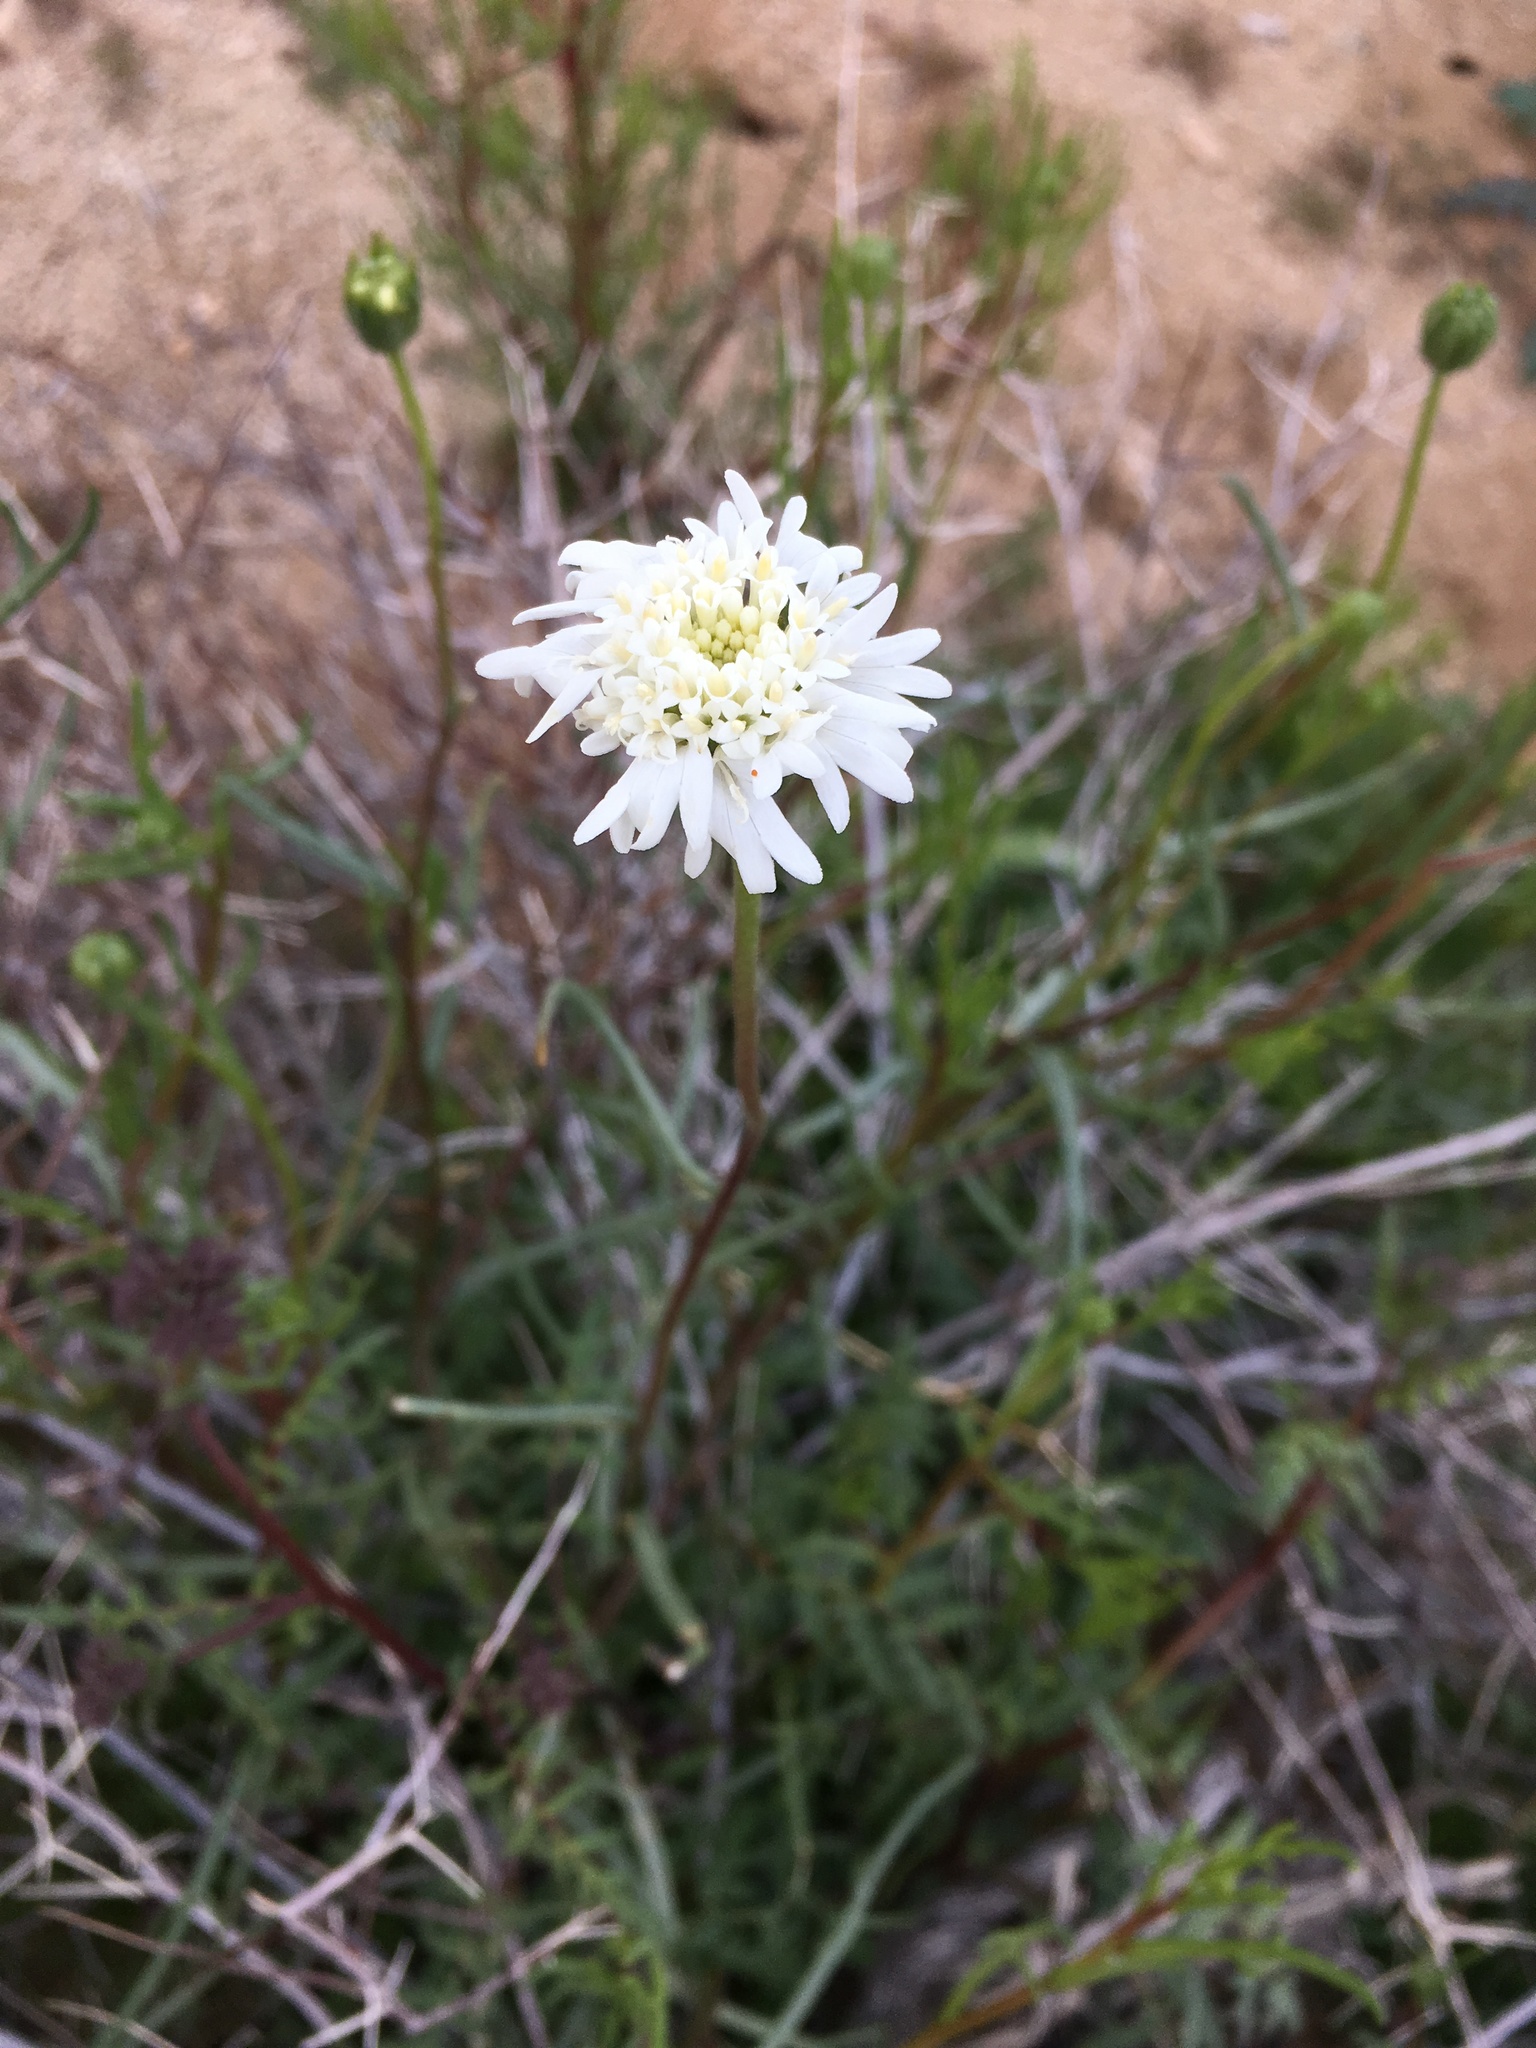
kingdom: Plantae
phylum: Tracheophyta
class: Magnoliopsida
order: Asterales
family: Asteraceae
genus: Chaenactis
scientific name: Chaenactis fremontii
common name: Fremont pincushion
